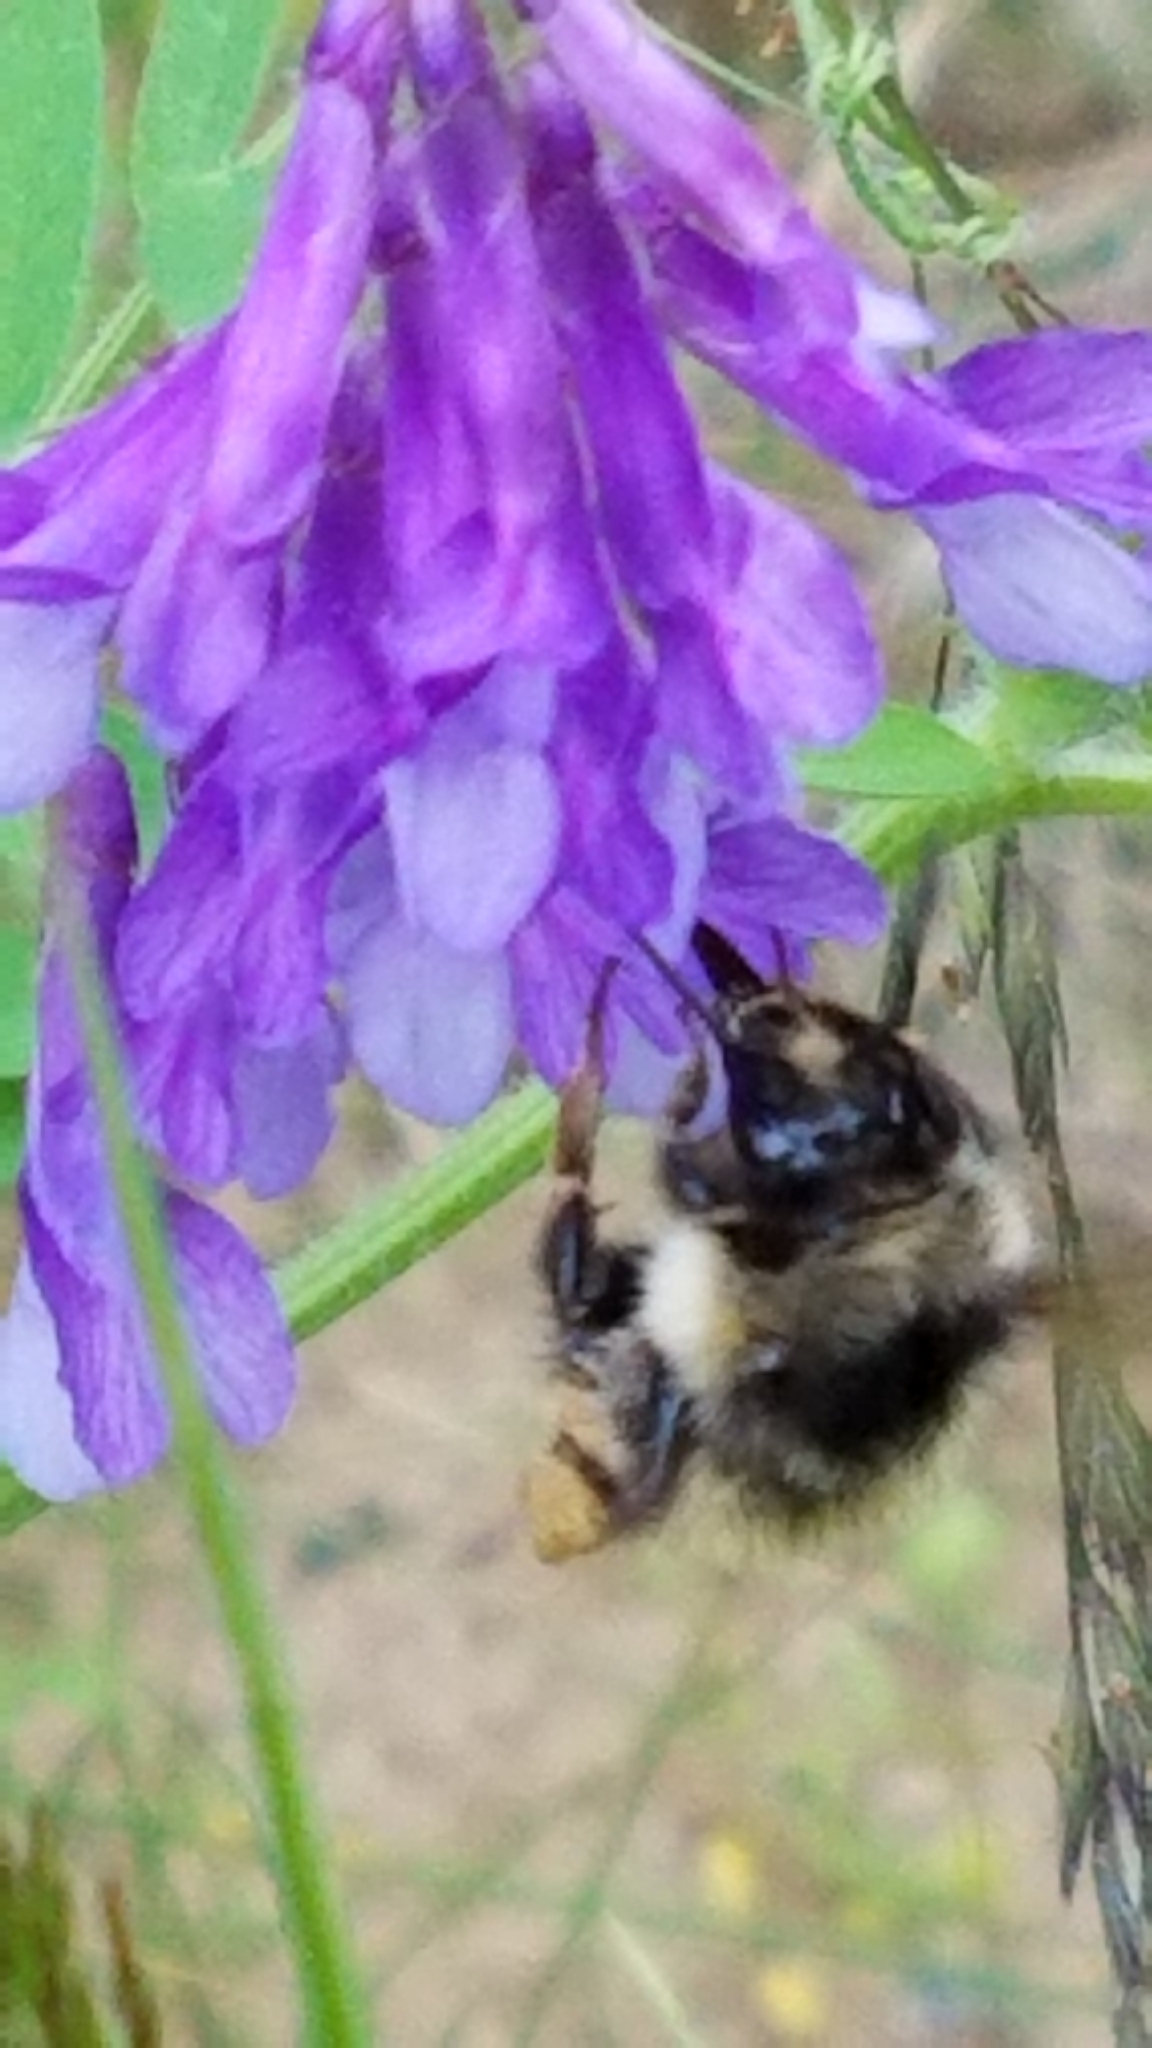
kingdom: Animalia
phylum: Arthropoda
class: Insecta
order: Hymenoptera
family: Apidae
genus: Bombus
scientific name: Bombus
